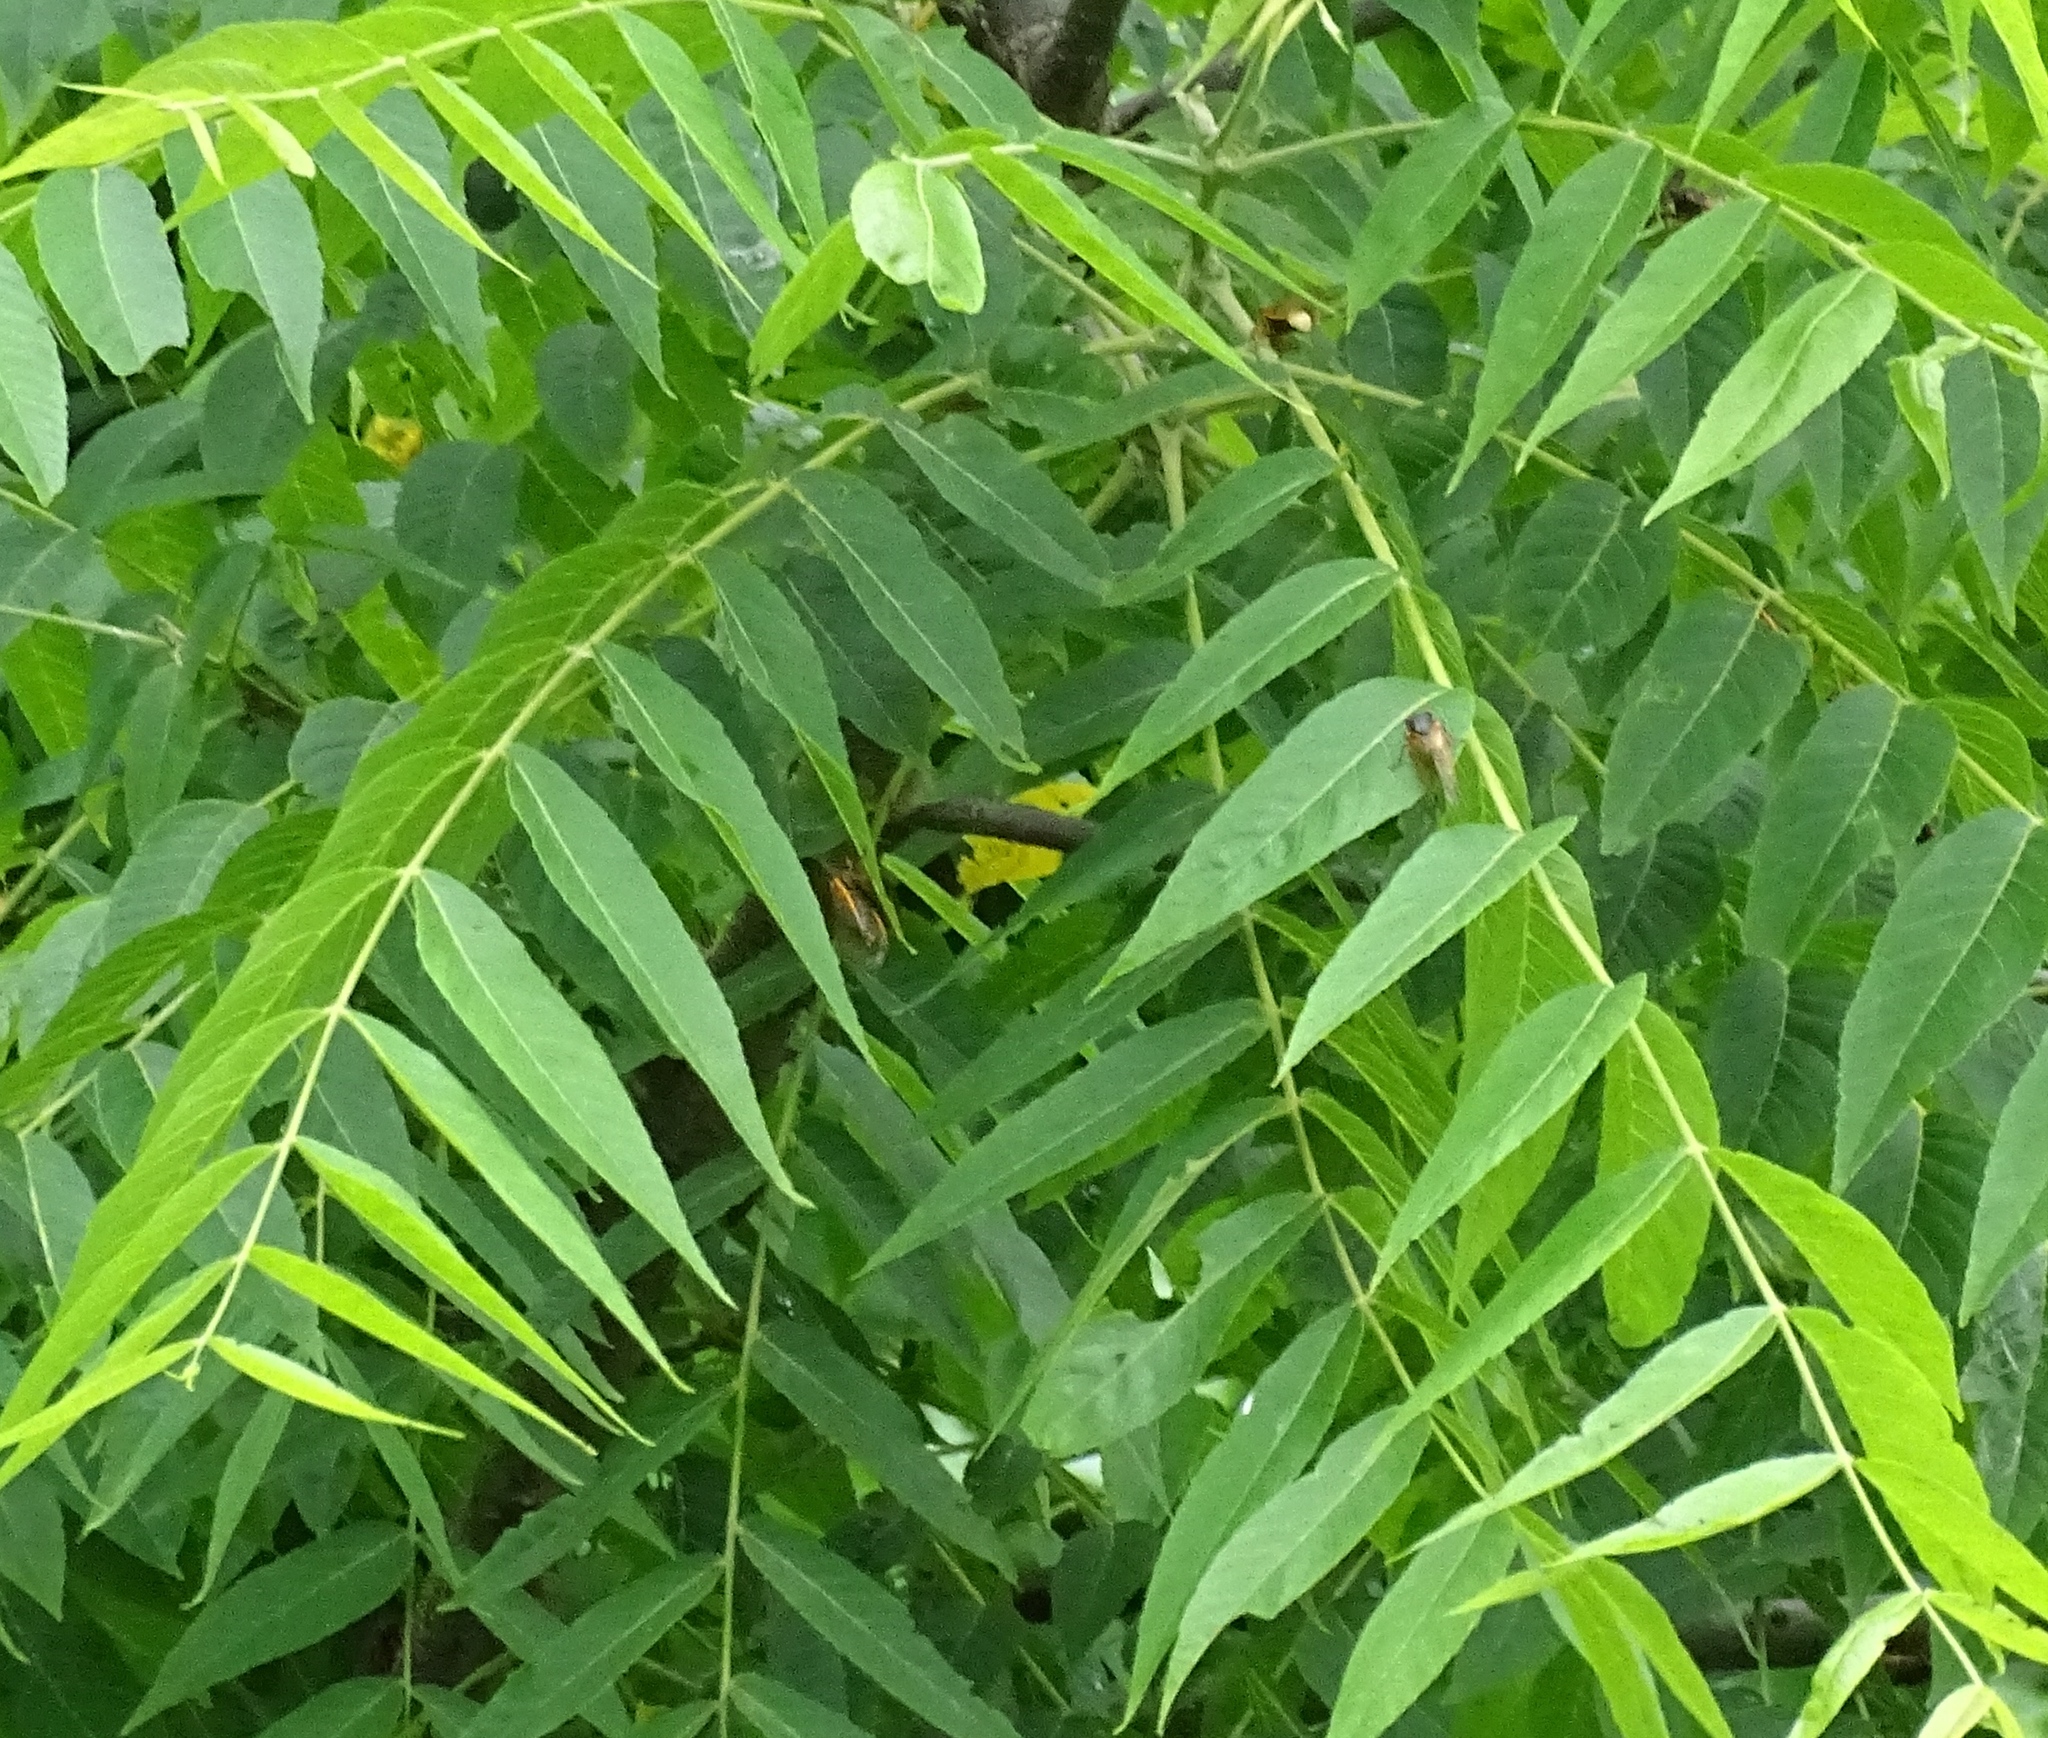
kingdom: Plantae
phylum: Tracheophyta
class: Magnoliopsida
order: Fagales
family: Juglandaceae
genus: Juglans
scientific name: Juglans nigra
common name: Black walnut
